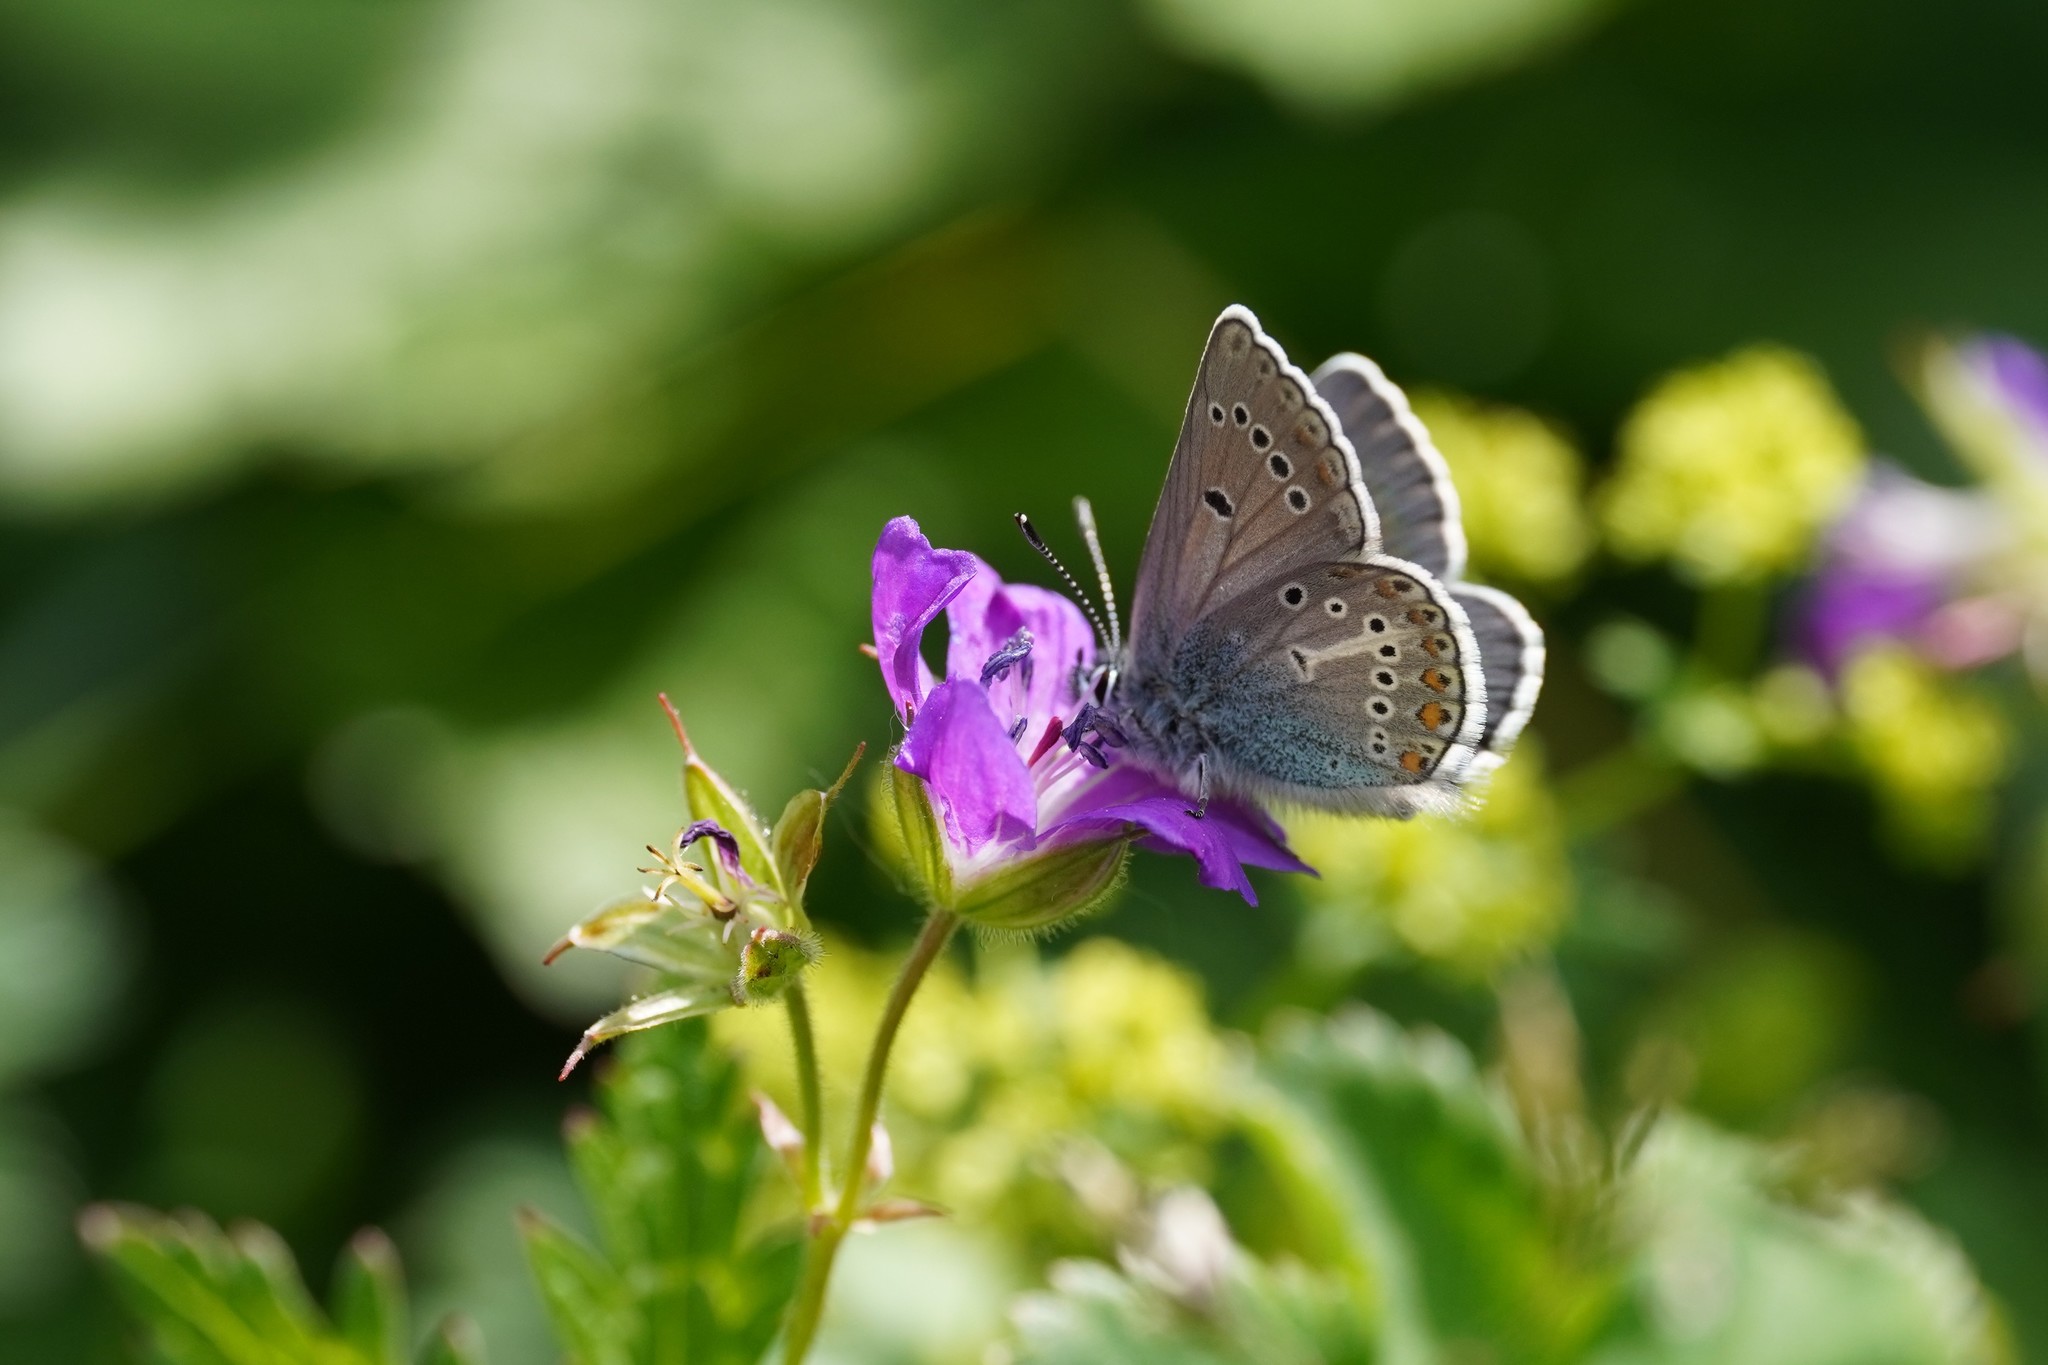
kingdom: Animalia
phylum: Arthropoda
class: Insecta
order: Lepidoptera
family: Lycaenidae
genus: Eumedonia
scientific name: Eumedonia eumedon
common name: Geranium argus
